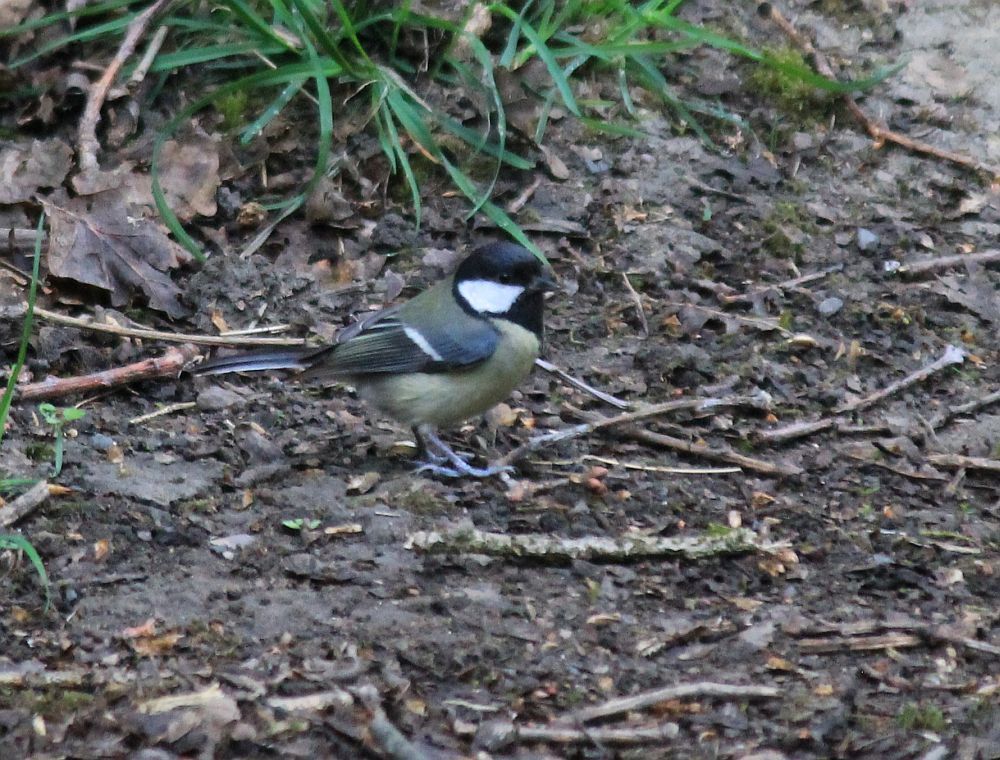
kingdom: Animalia
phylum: Chordata
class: Aves
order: Passeriformes
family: Paridae
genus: Parus
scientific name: Parus major
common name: Great tit
